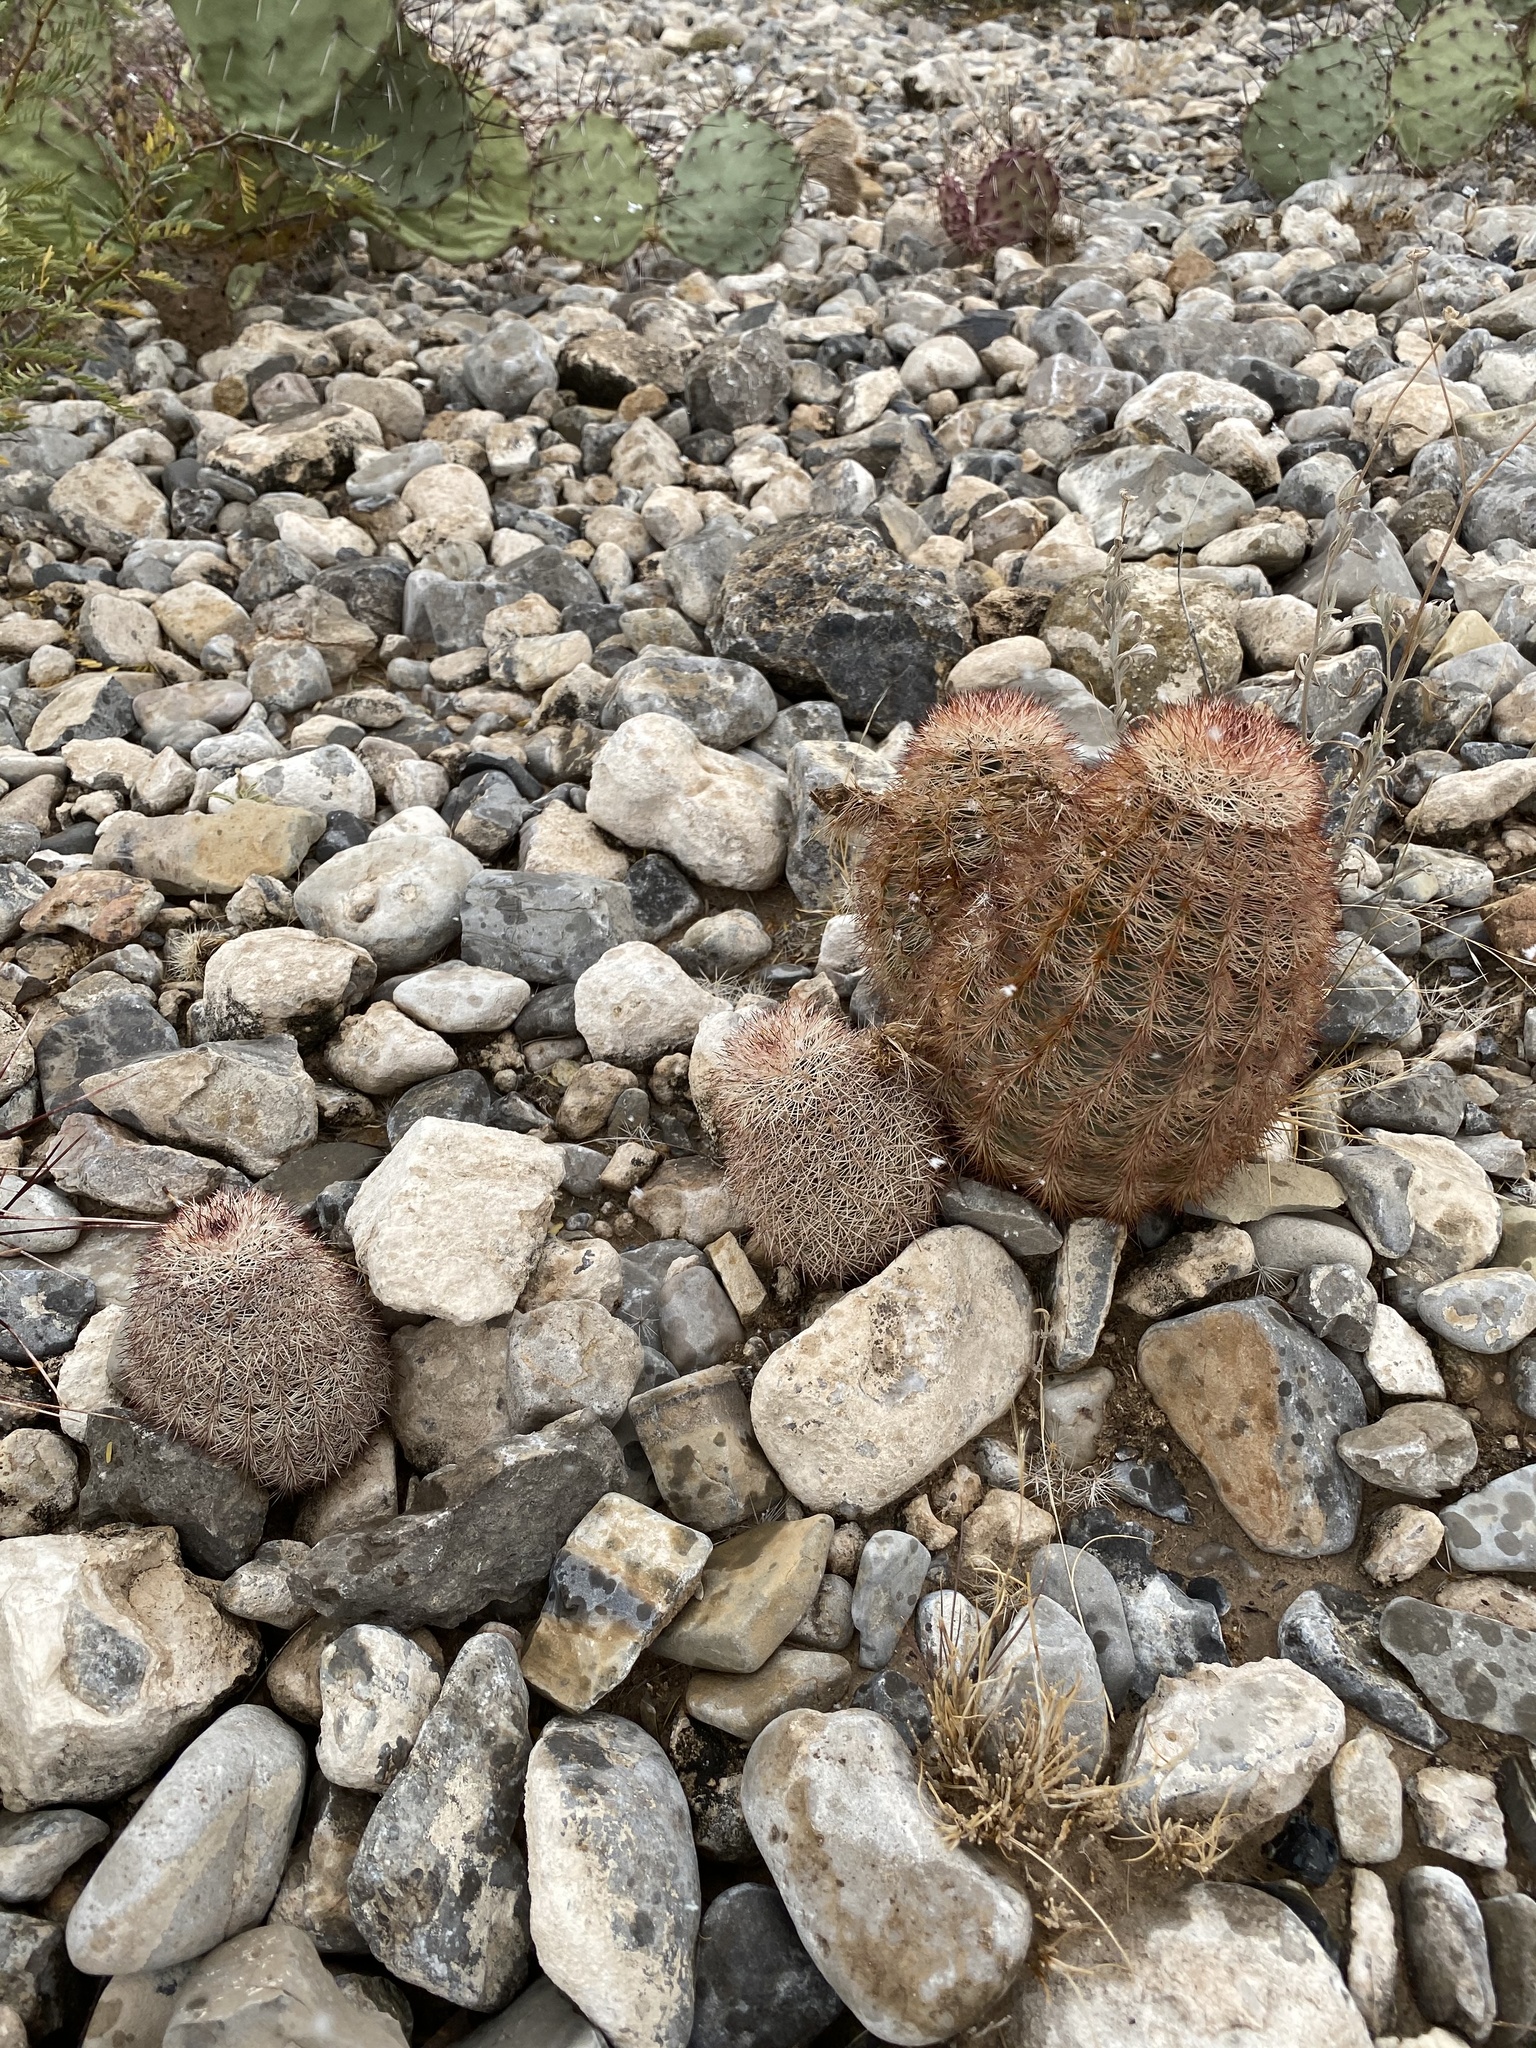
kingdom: Plantae
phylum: Tracheophyta
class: Magnoliopsida
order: Caryophyllales
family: Cactaceae
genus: Echinocereus
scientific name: Echinocereus dasyacanthus
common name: Spiny hedgehog cactus
